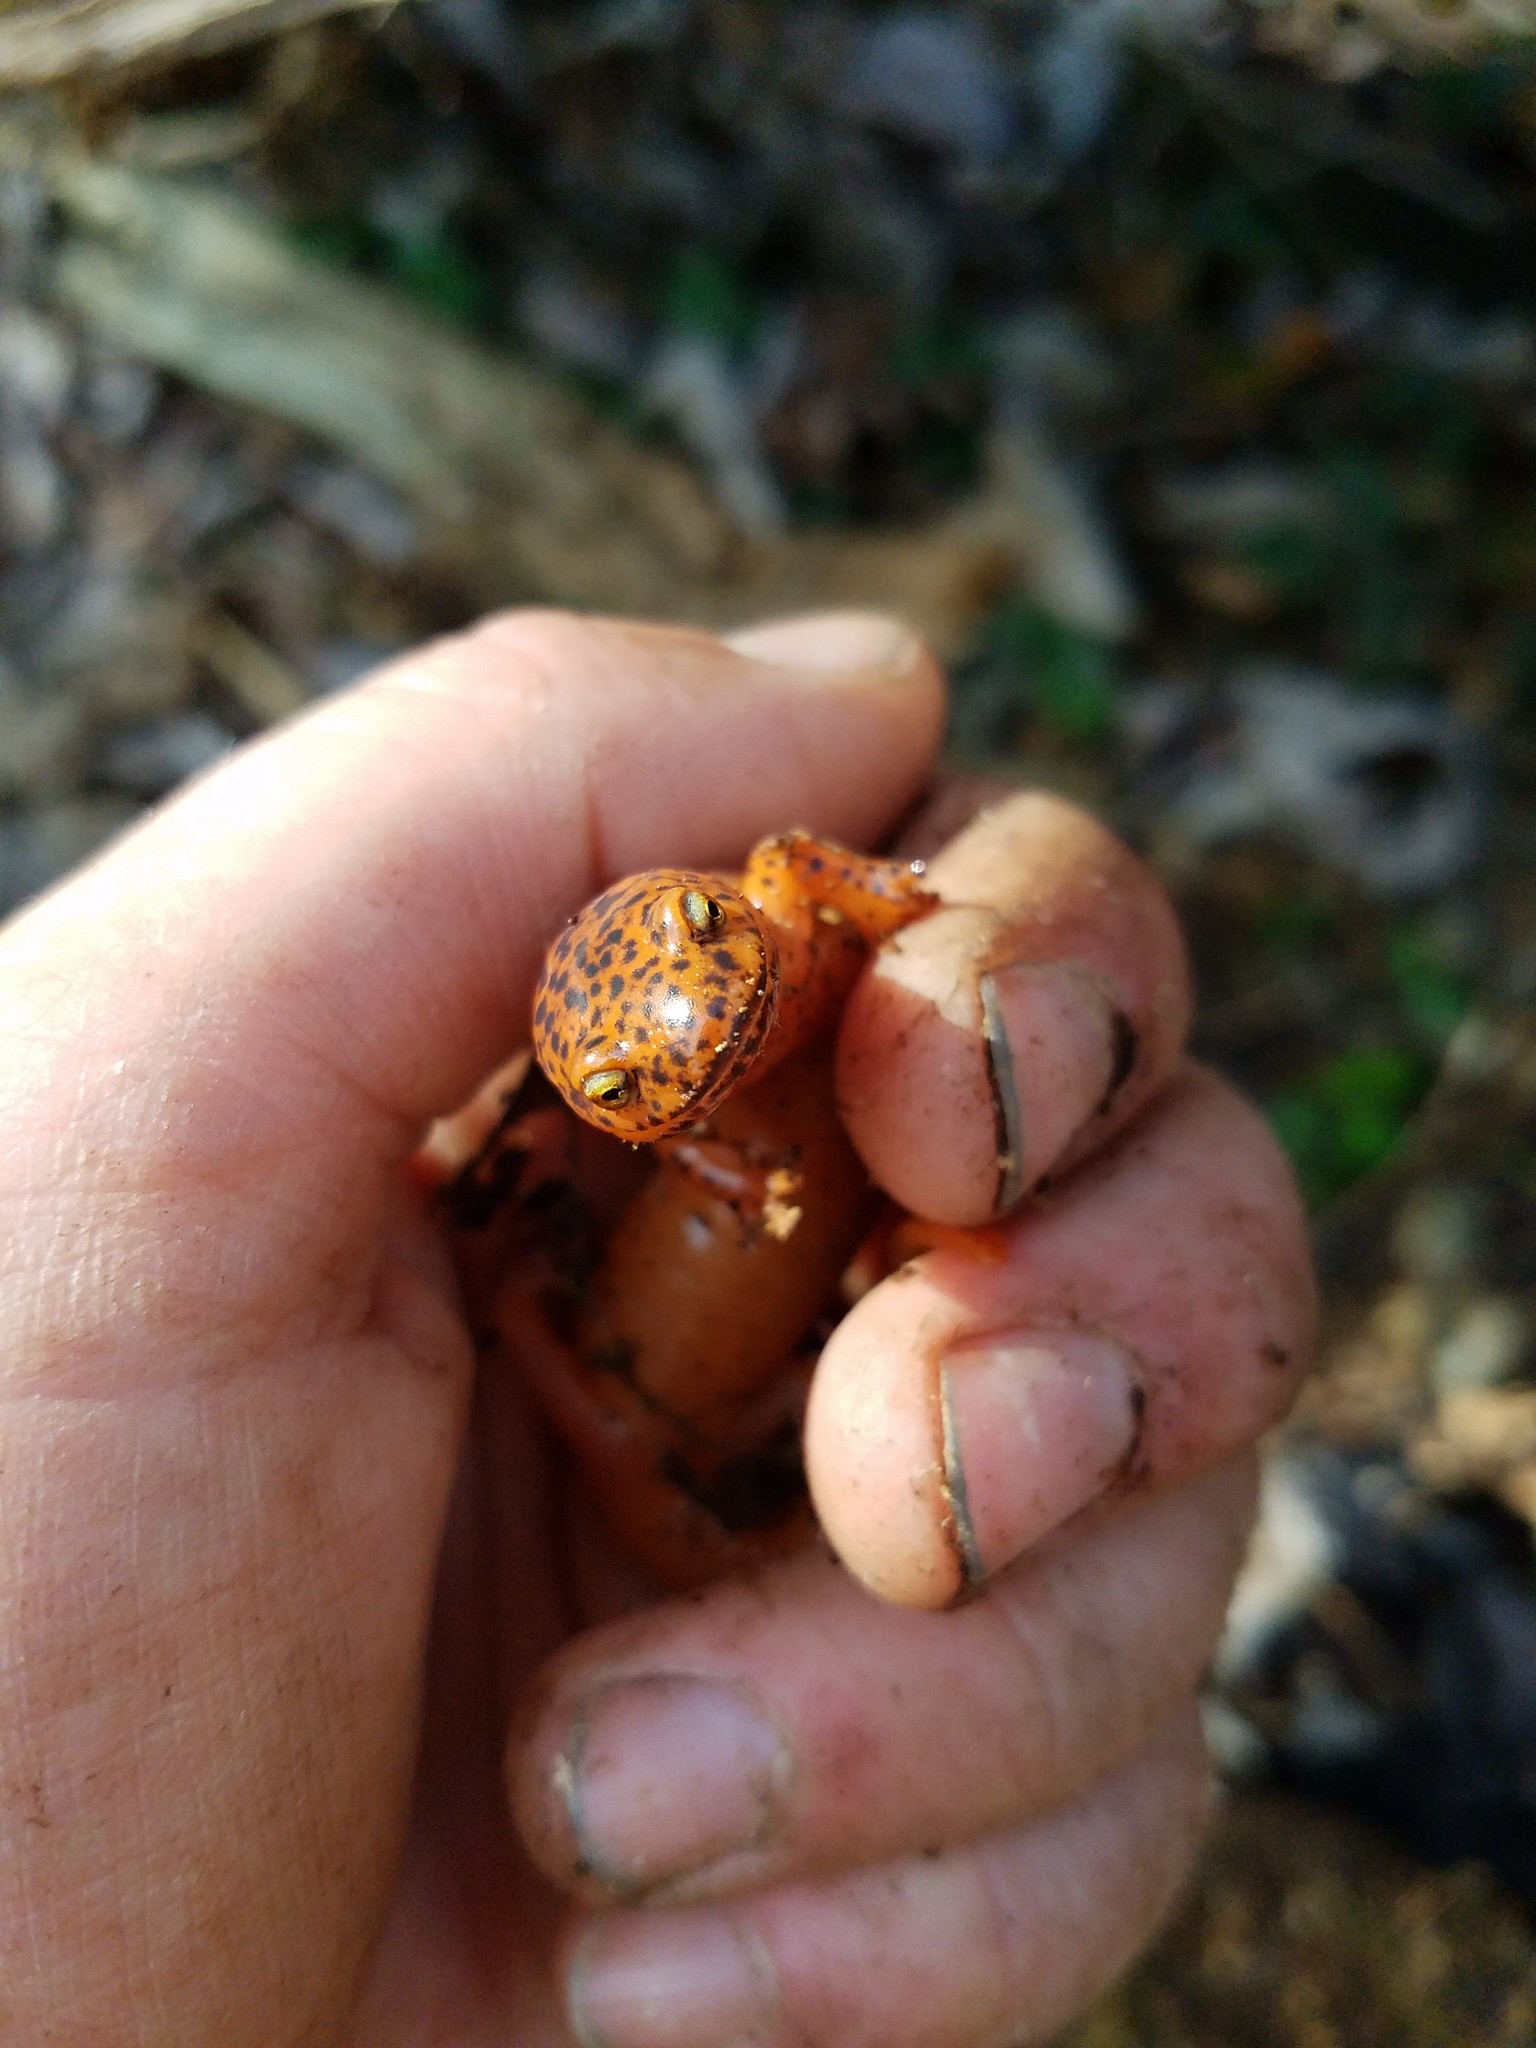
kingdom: Animalia
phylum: Chordata
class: Amphibia
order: Caudata
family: Plethodontidae
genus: Pseudotriton
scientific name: Pseudotriton ruber
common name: Red salamander
